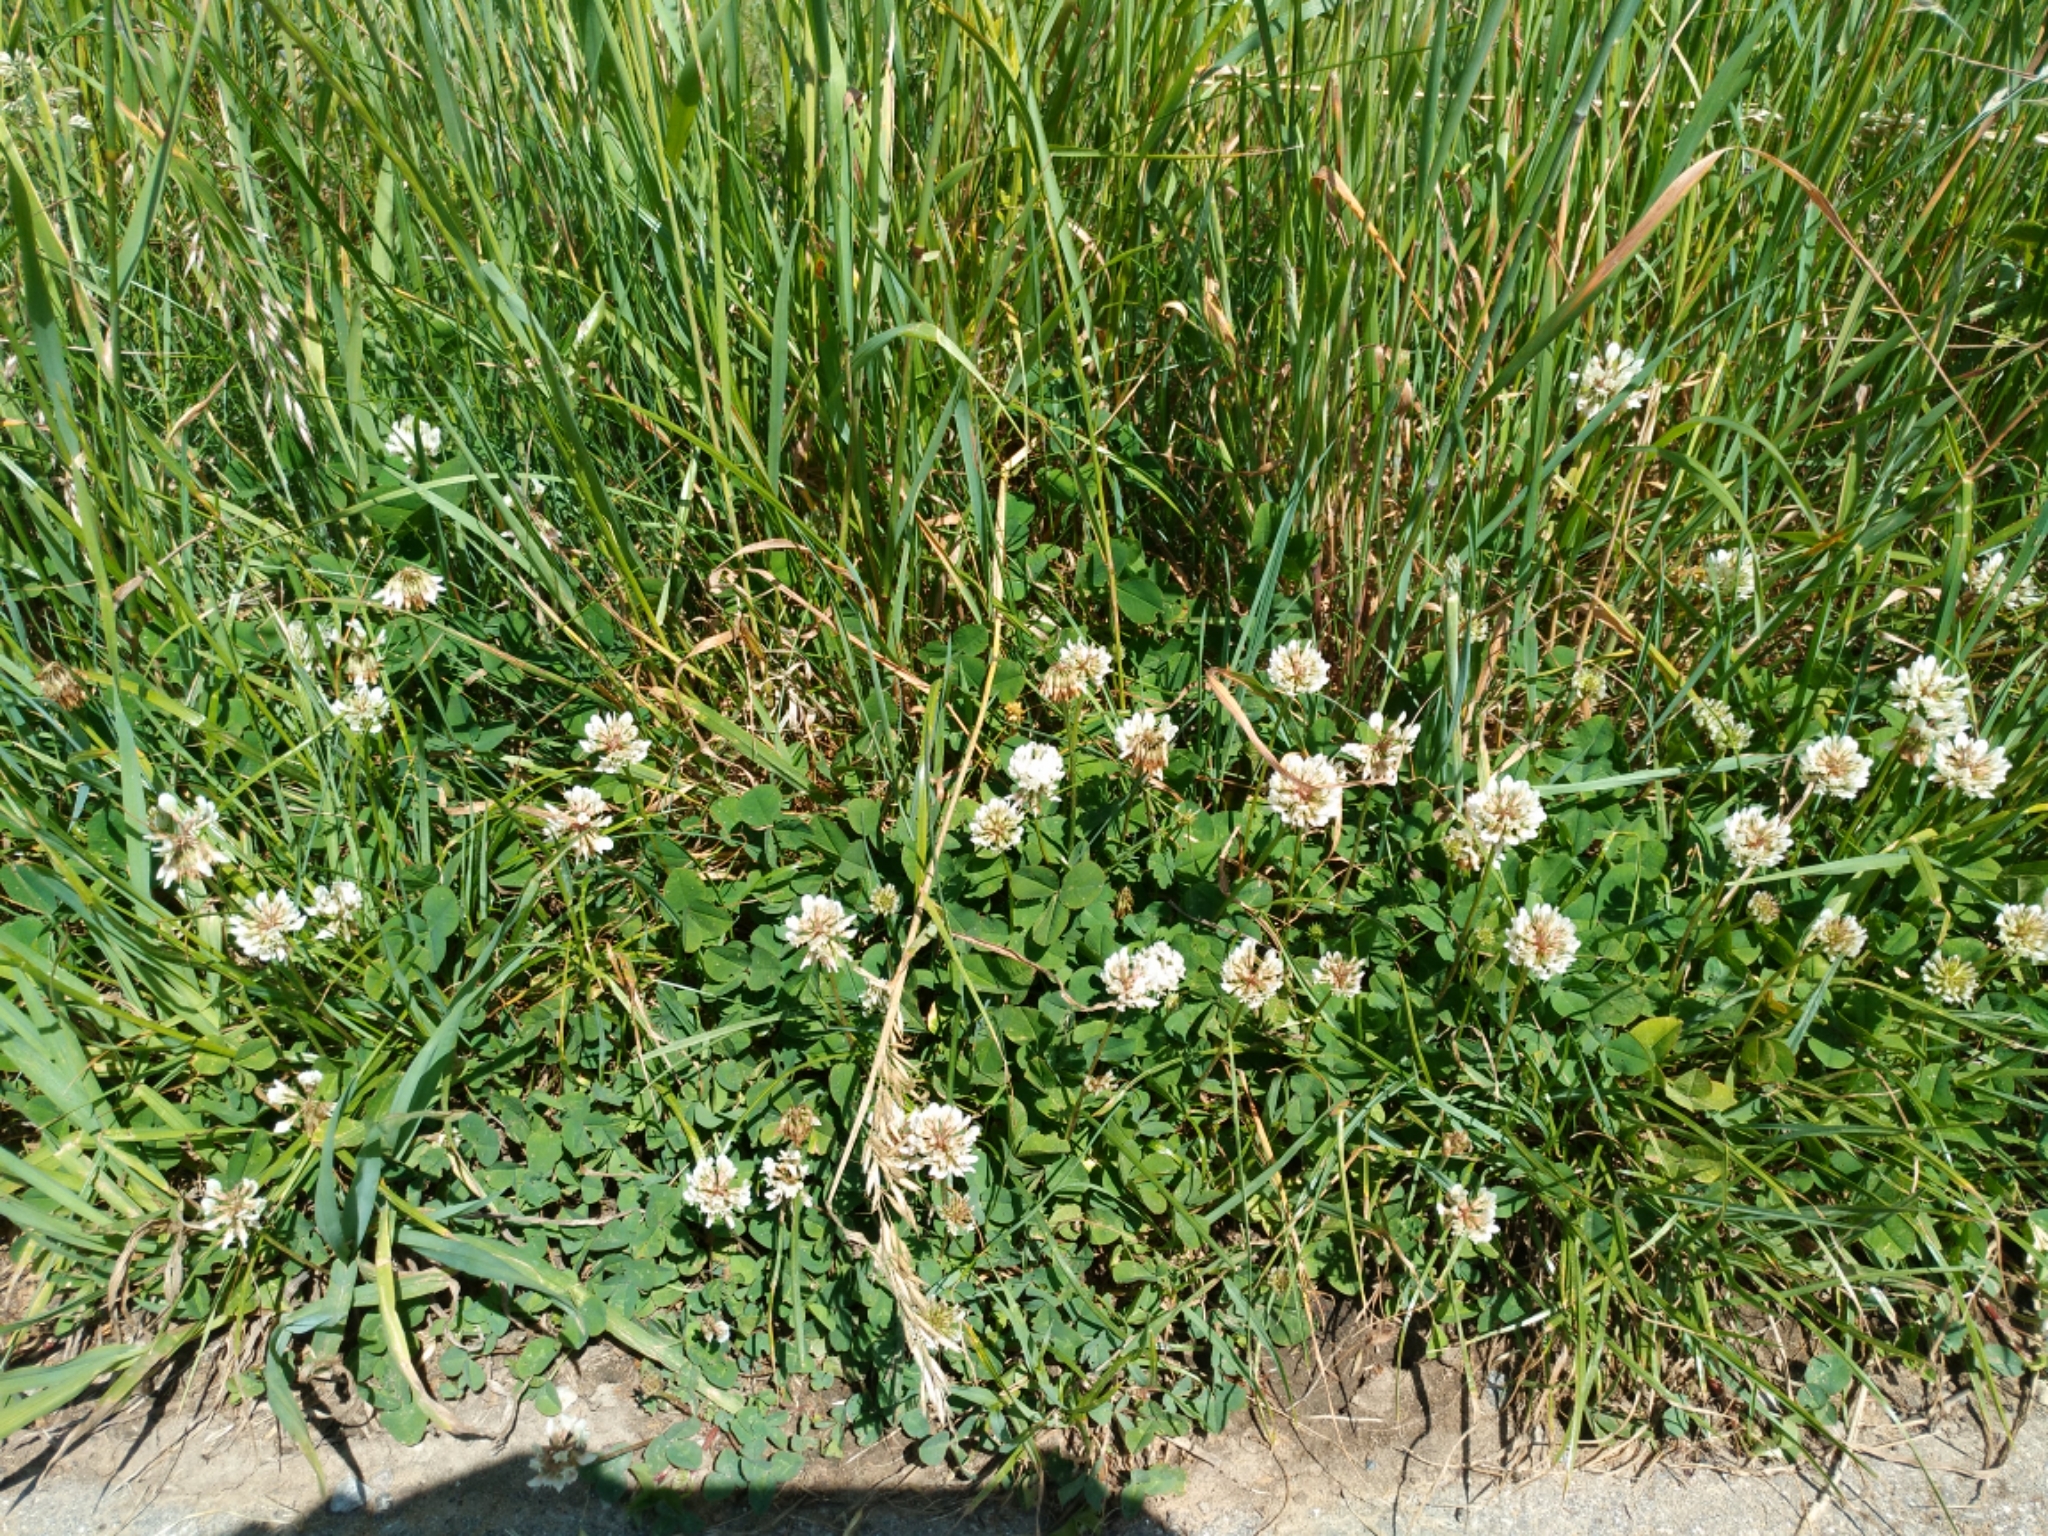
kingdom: Plantae
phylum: Tracheophyta
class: Magnoliopsida
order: Fabales
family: Fabaceae
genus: Trifolium
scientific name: Trifolium repens
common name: White clover
